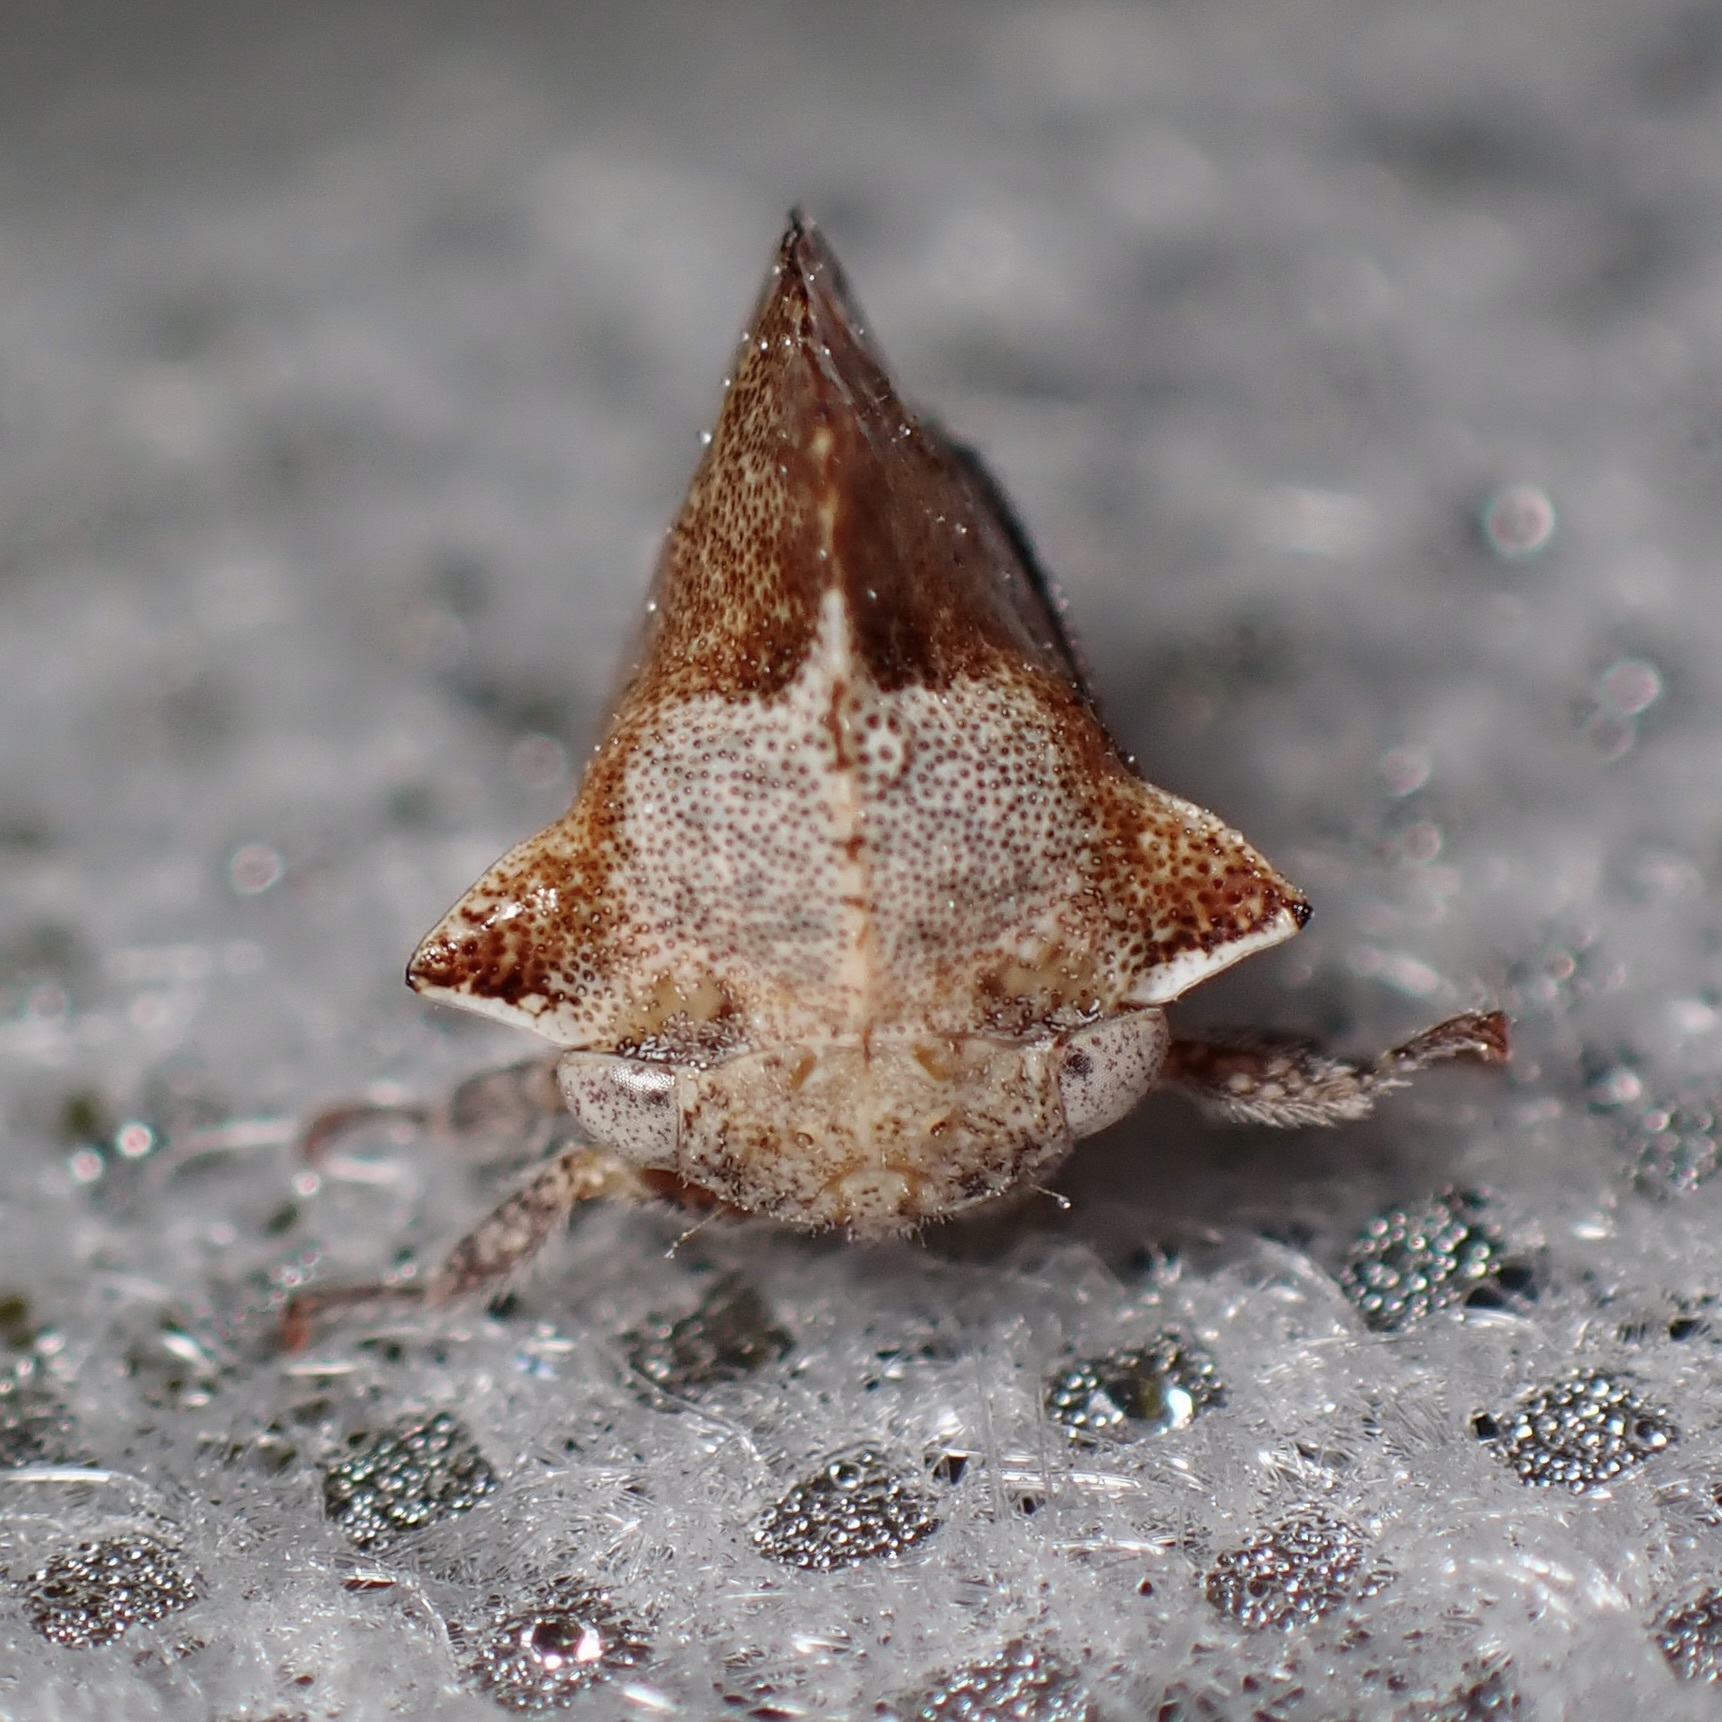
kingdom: Animalia
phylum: Arthropoda
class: Insecta
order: Hemiptera
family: Membracidae
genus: Telamonanthe
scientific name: Telamonanthe pulchella
